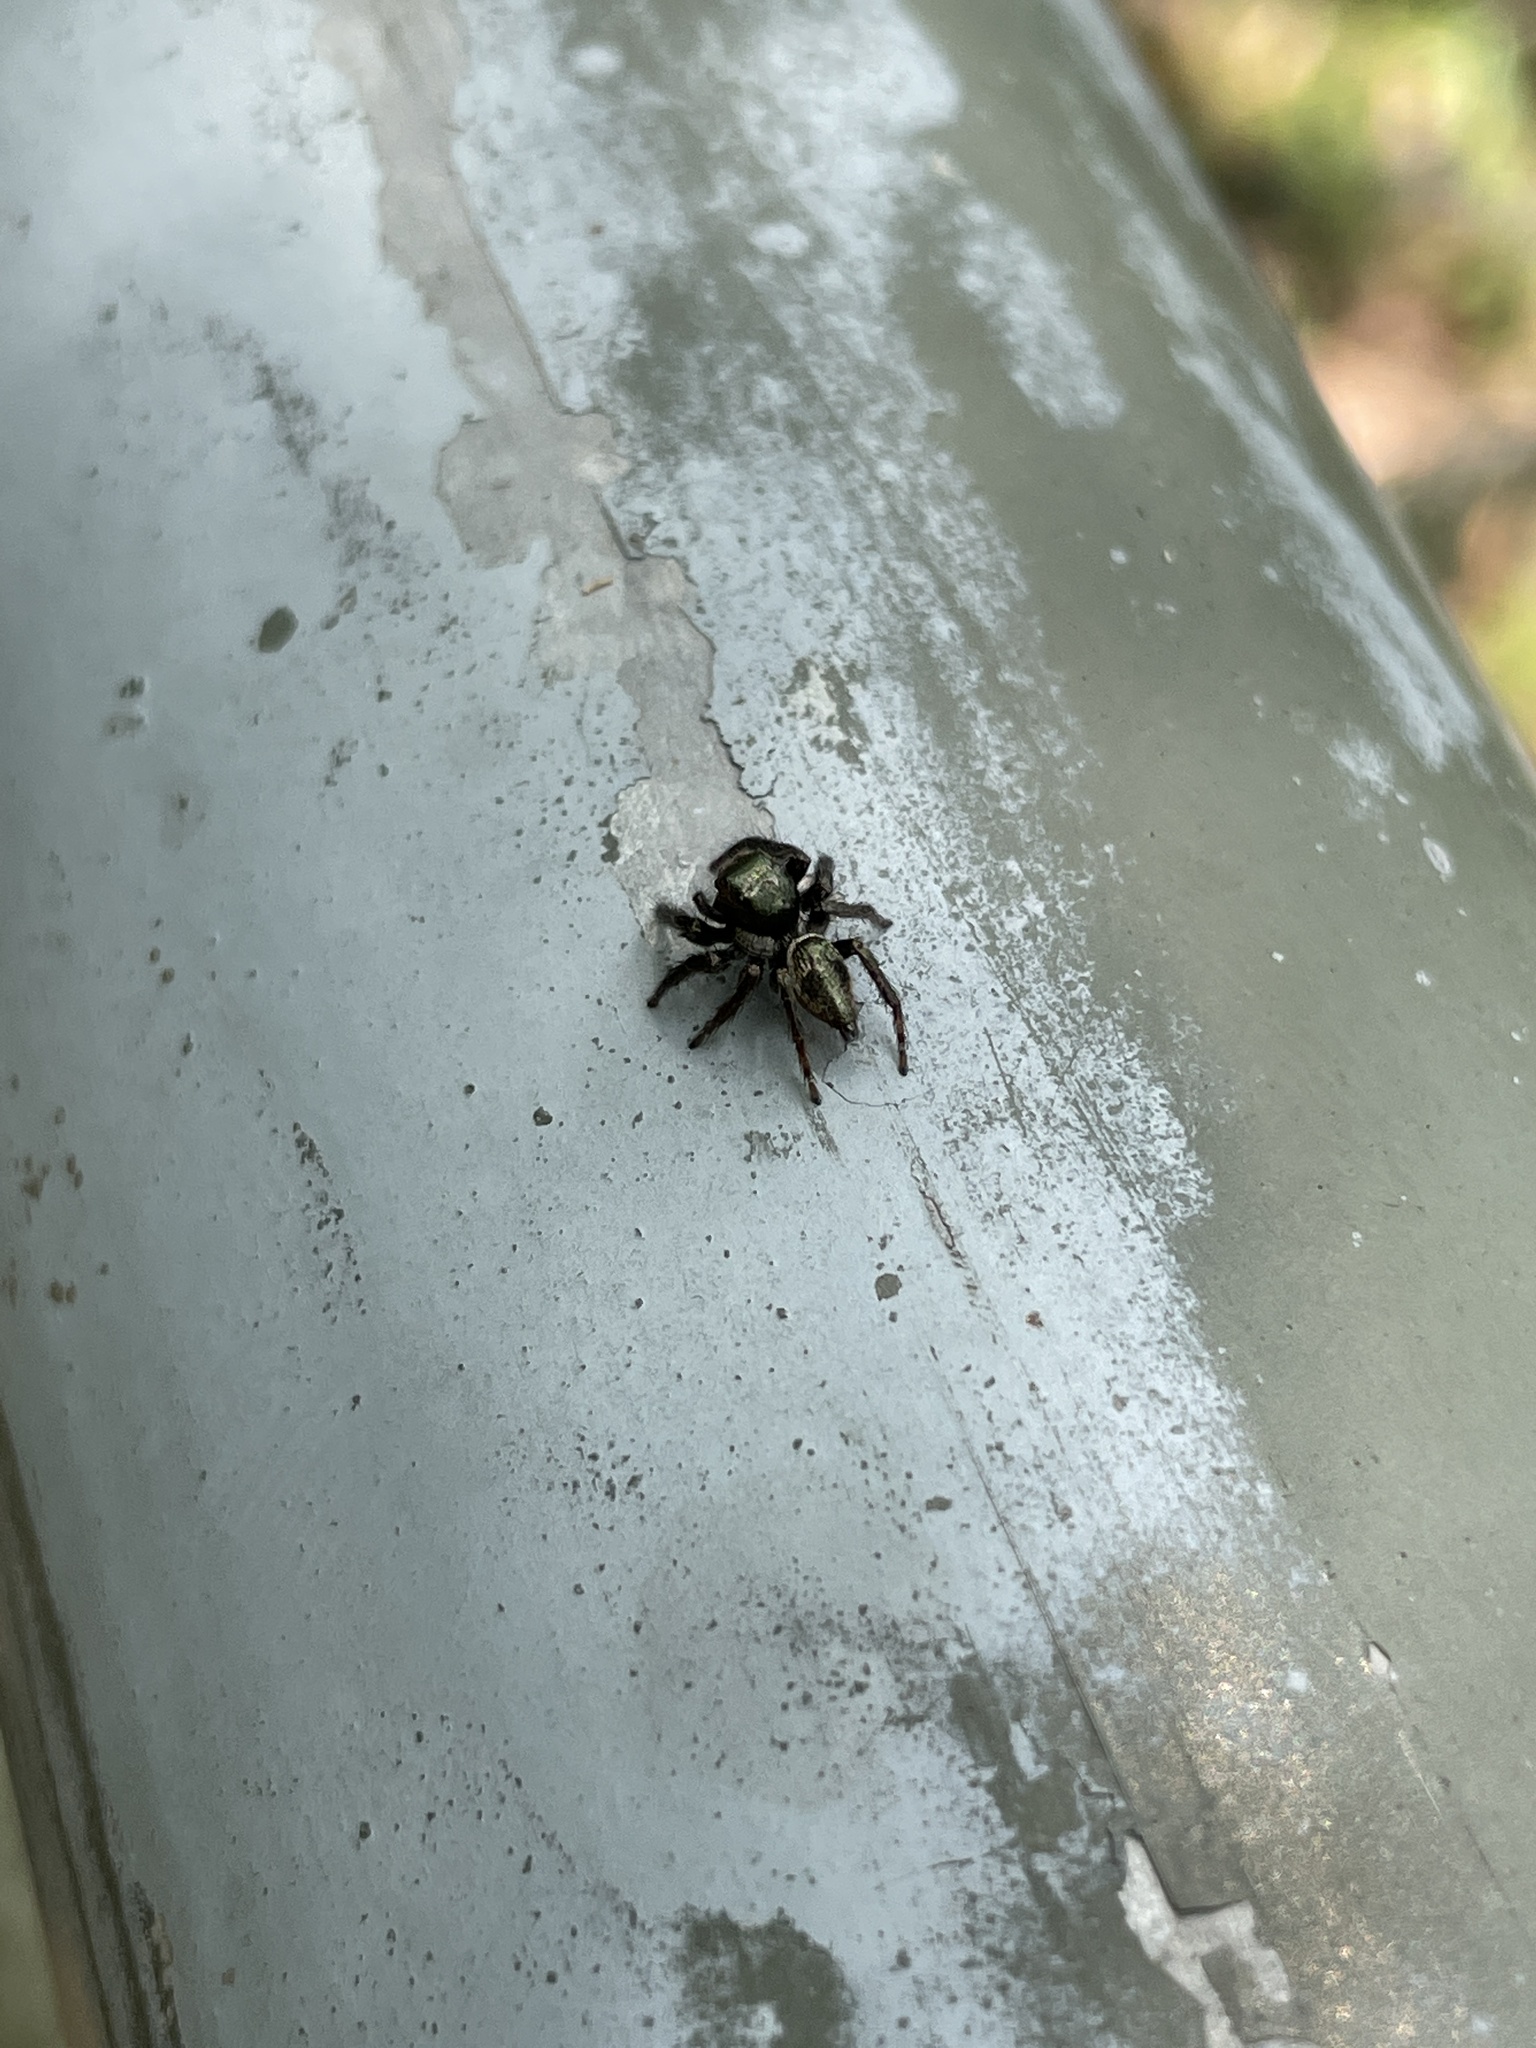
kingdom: Animalia
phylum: Arthropoda
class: Arachnida
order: Araneae
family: Salticidae
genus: Carrhotus
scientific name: Carrhotus viduus
